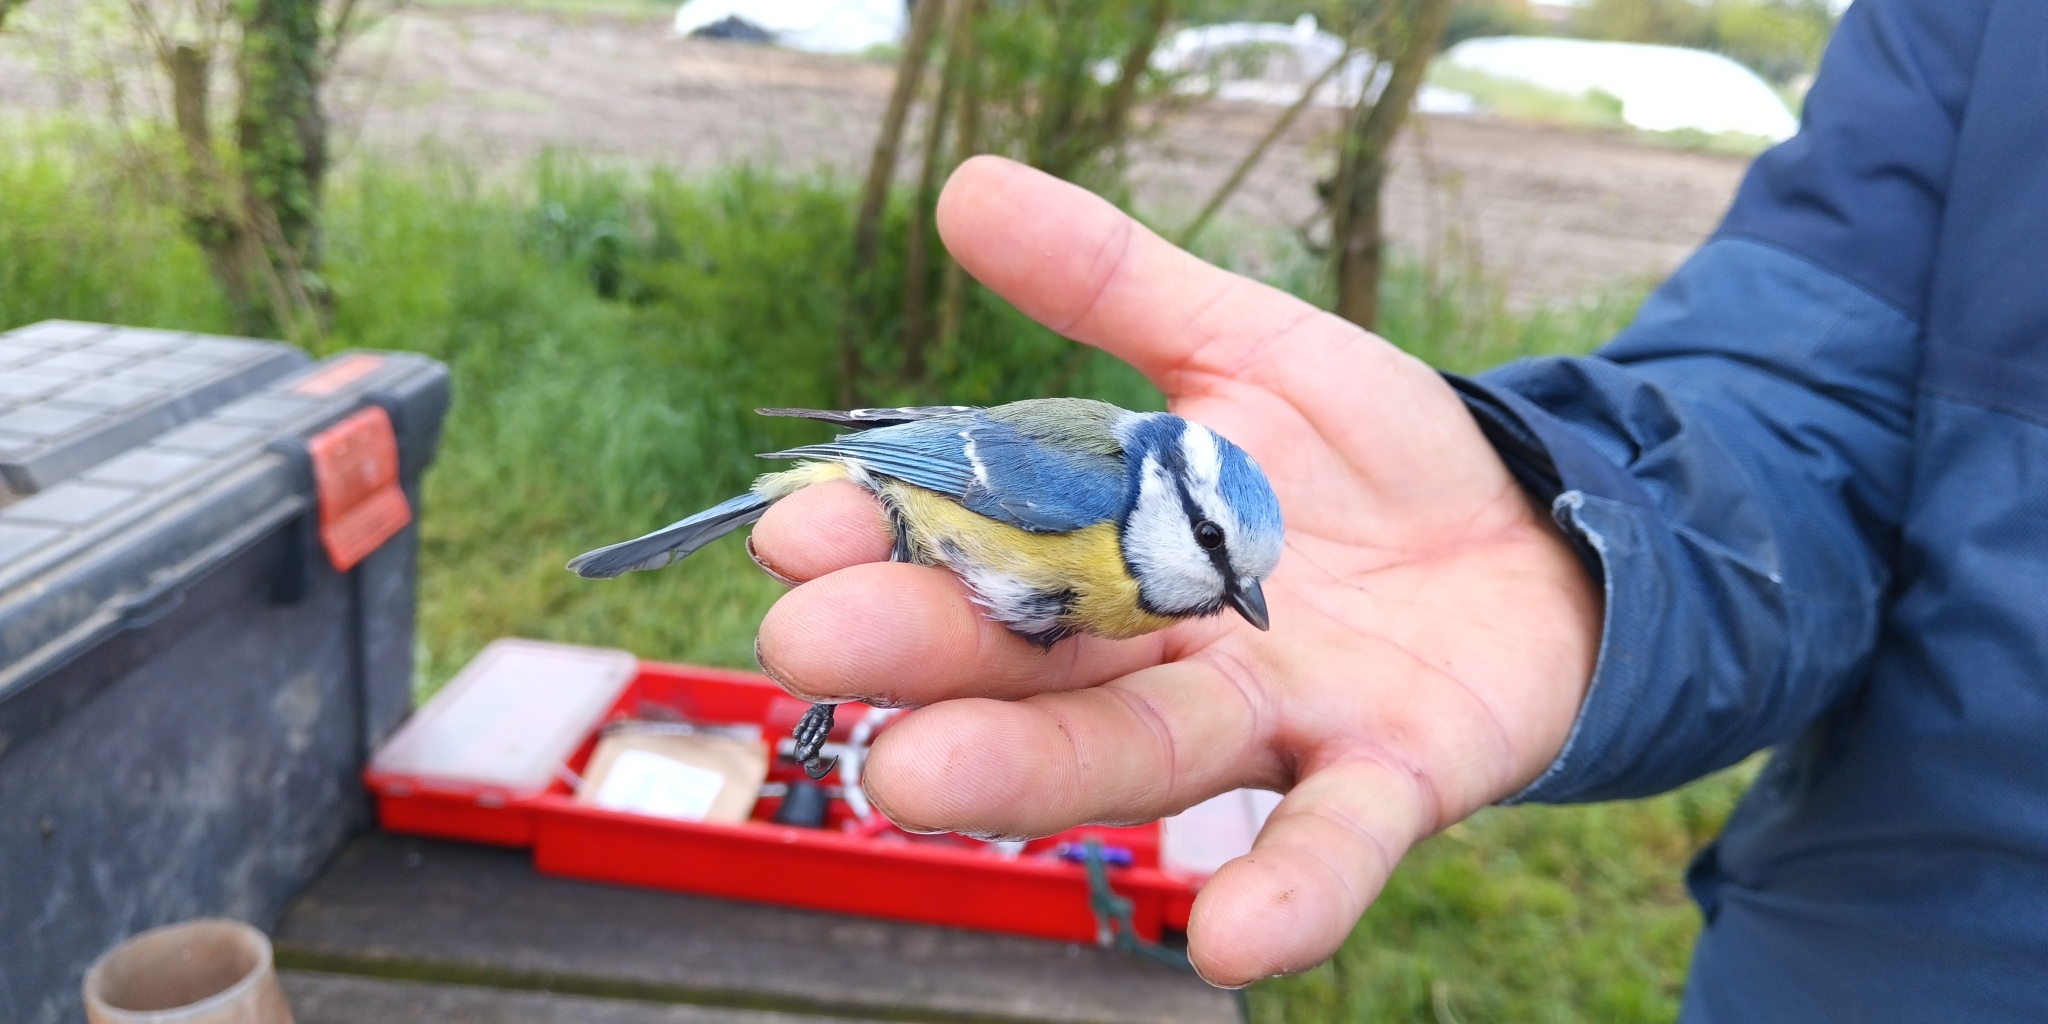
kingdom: Animalia
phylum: Chordata
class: Aves
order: Passeriformes
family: Paridae
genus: Cyanistes
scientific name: Cyanistes caeruleus
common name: Eurasian blue tit
